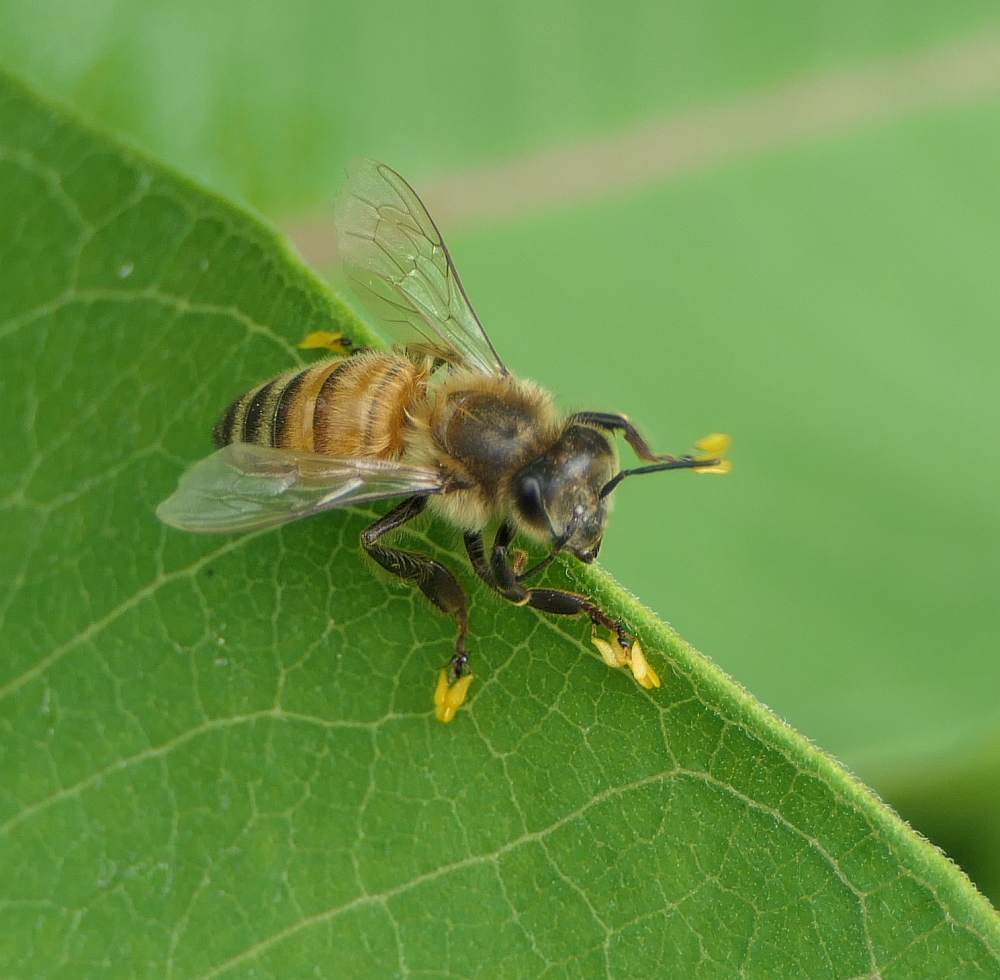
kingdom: Animalia
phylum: Arthropoda
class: Insecta
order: Hymenoptera
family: Apidae
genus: Apis
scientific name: Apis mellifera
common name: Honey bee
